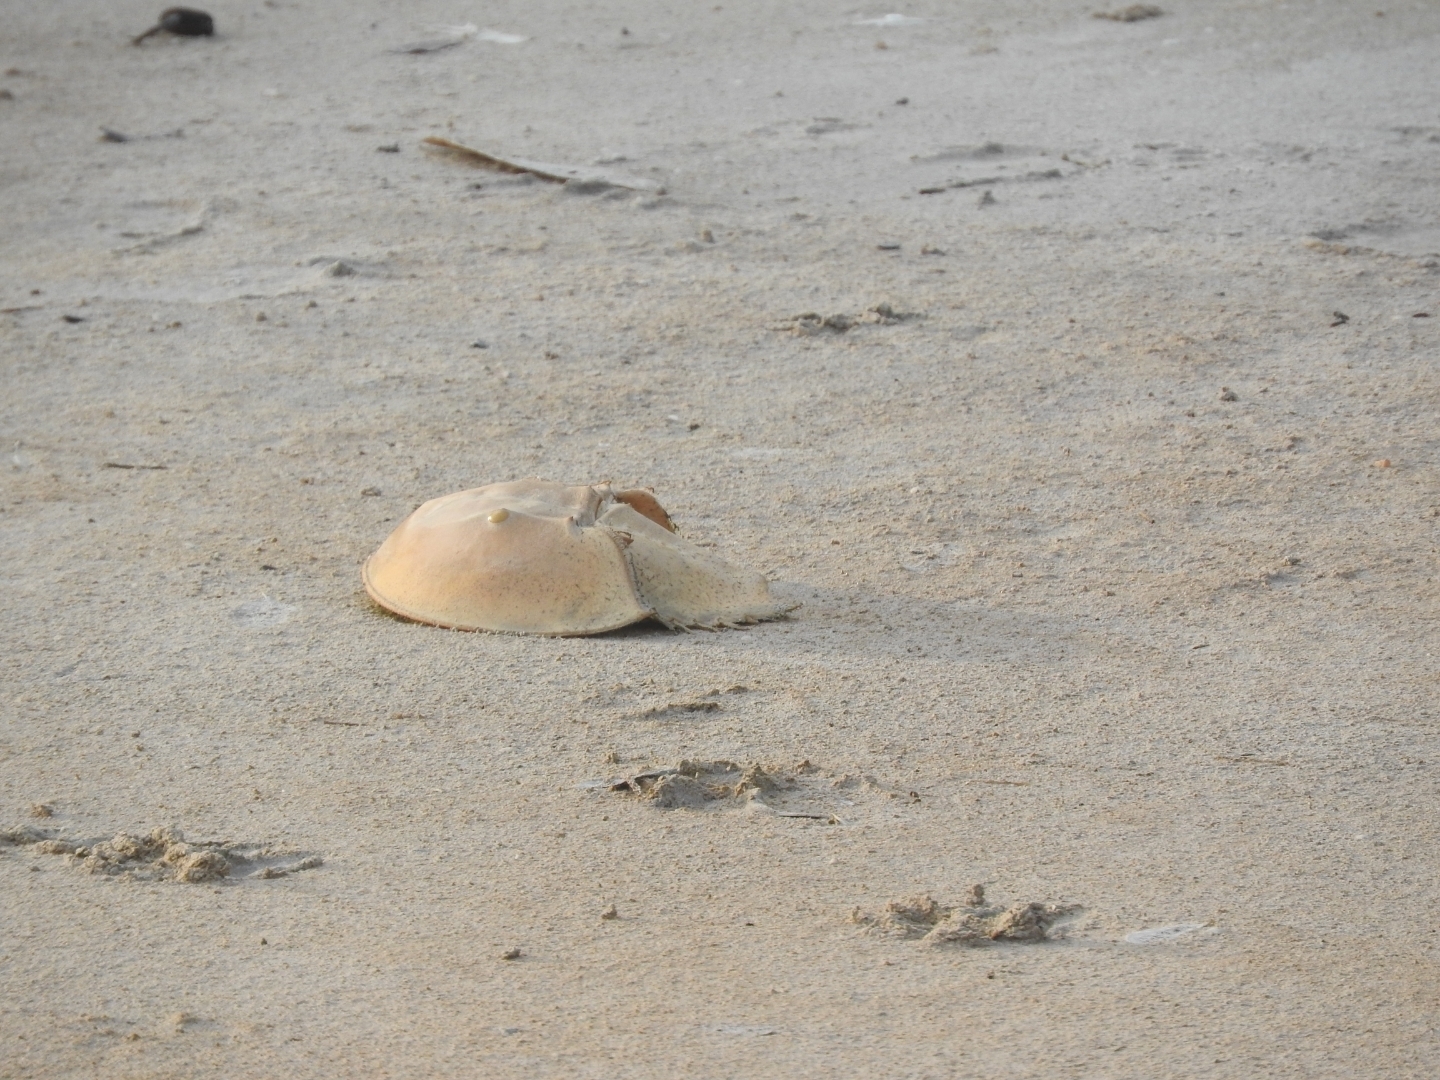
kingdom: Animalia
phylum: Arthropoda
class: Merostomata
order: Xiphosurida
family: Limulidae
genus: Limulus
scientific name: Limulus polyphemus
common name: Horseshoe crab
